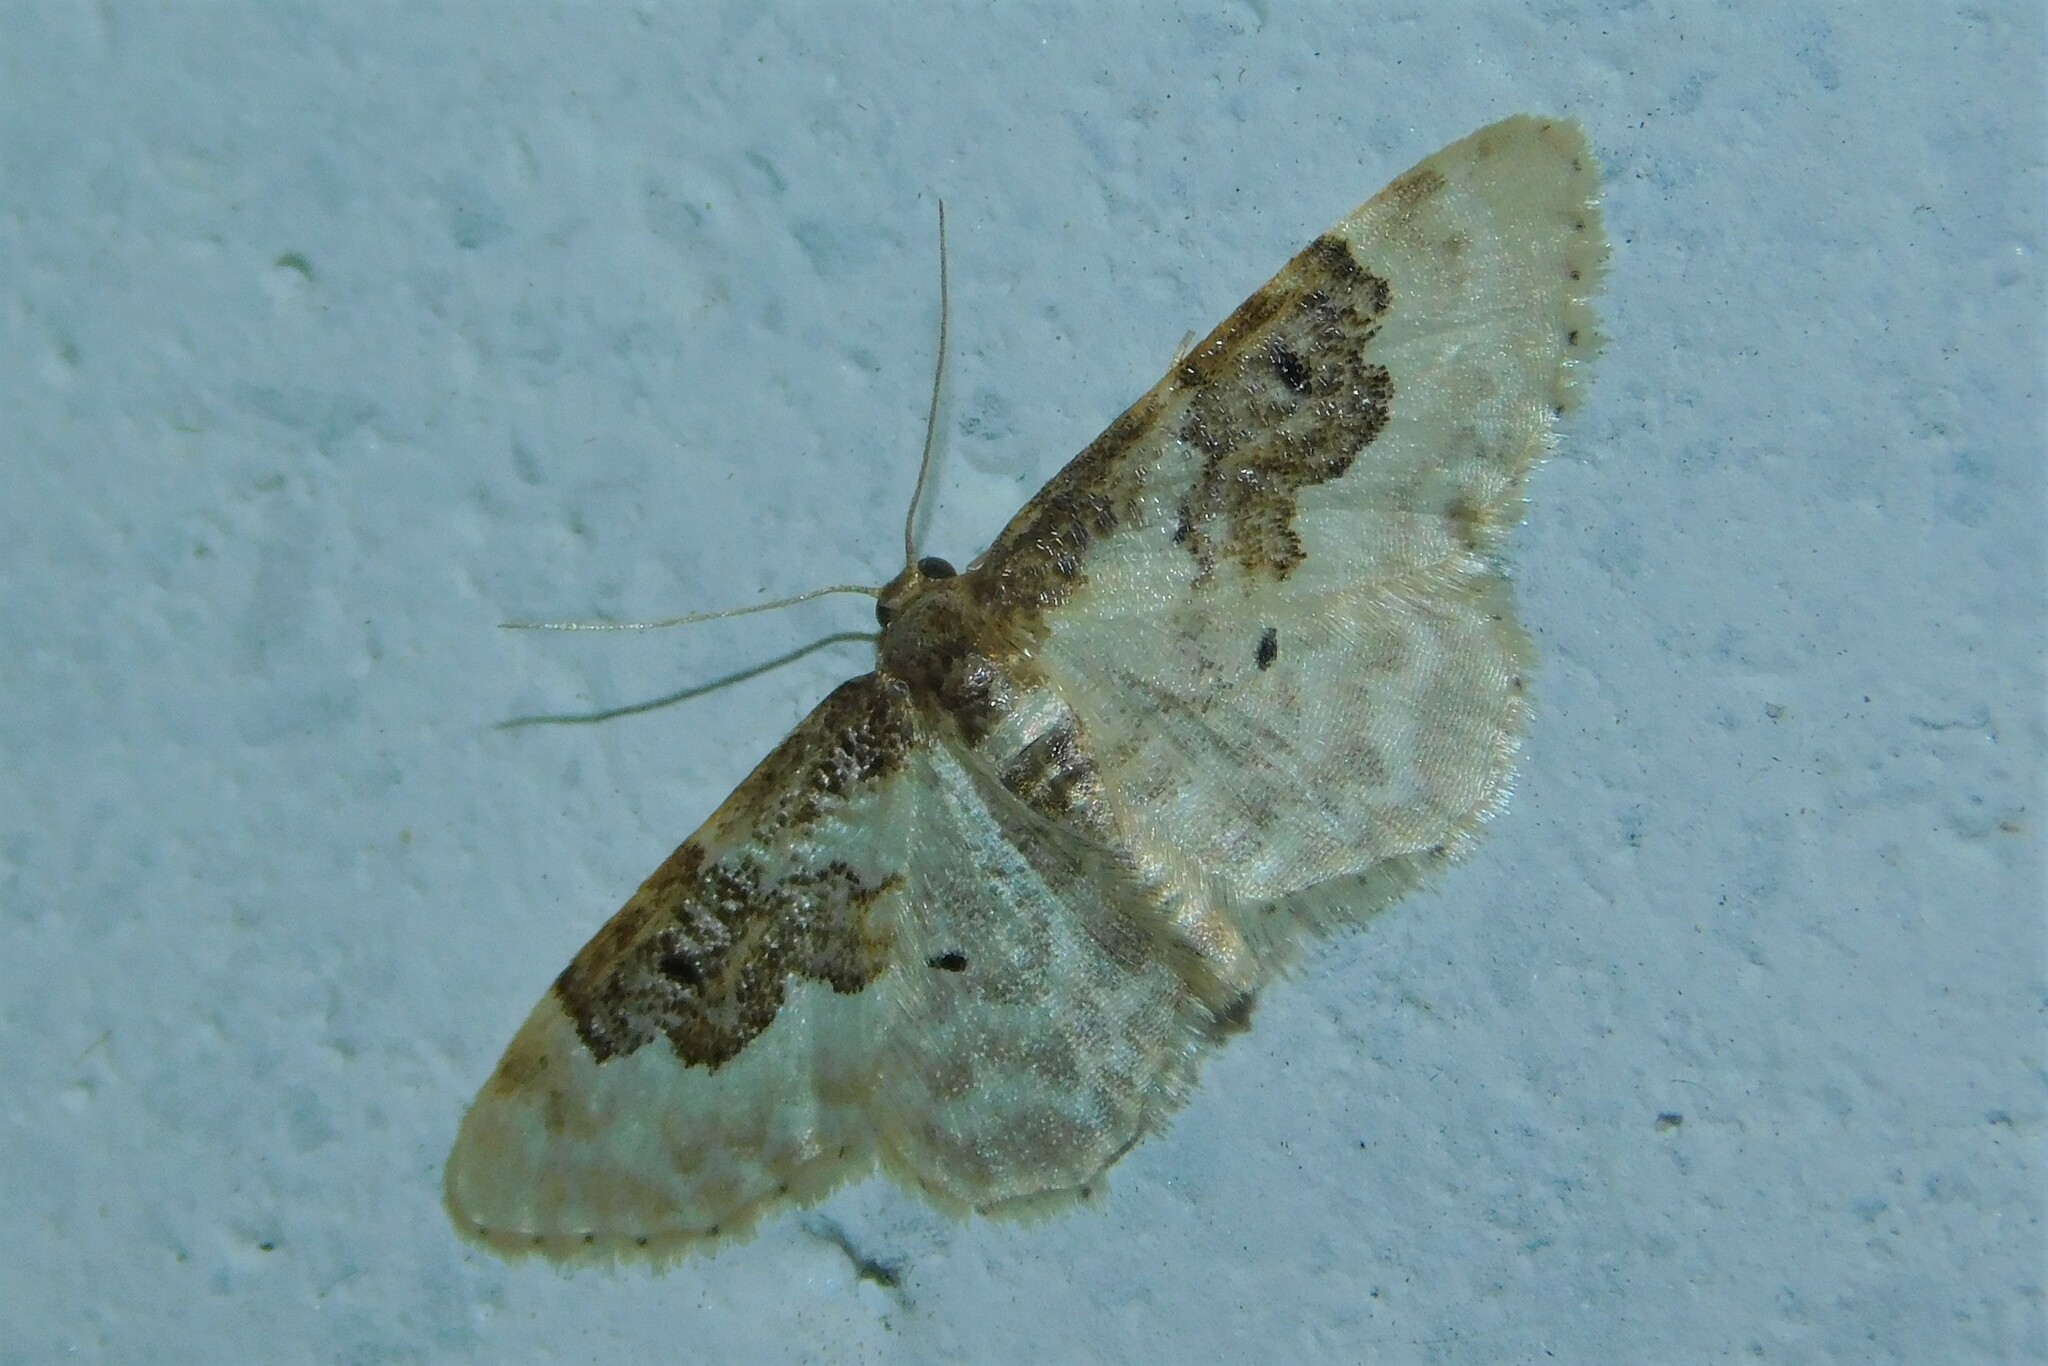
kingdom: Animalia
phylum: Arthropoda
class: Insecta
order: Lepidoptera
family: Geometridae
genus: Idaea
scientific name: Idaea rusticata
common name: Least carpet
